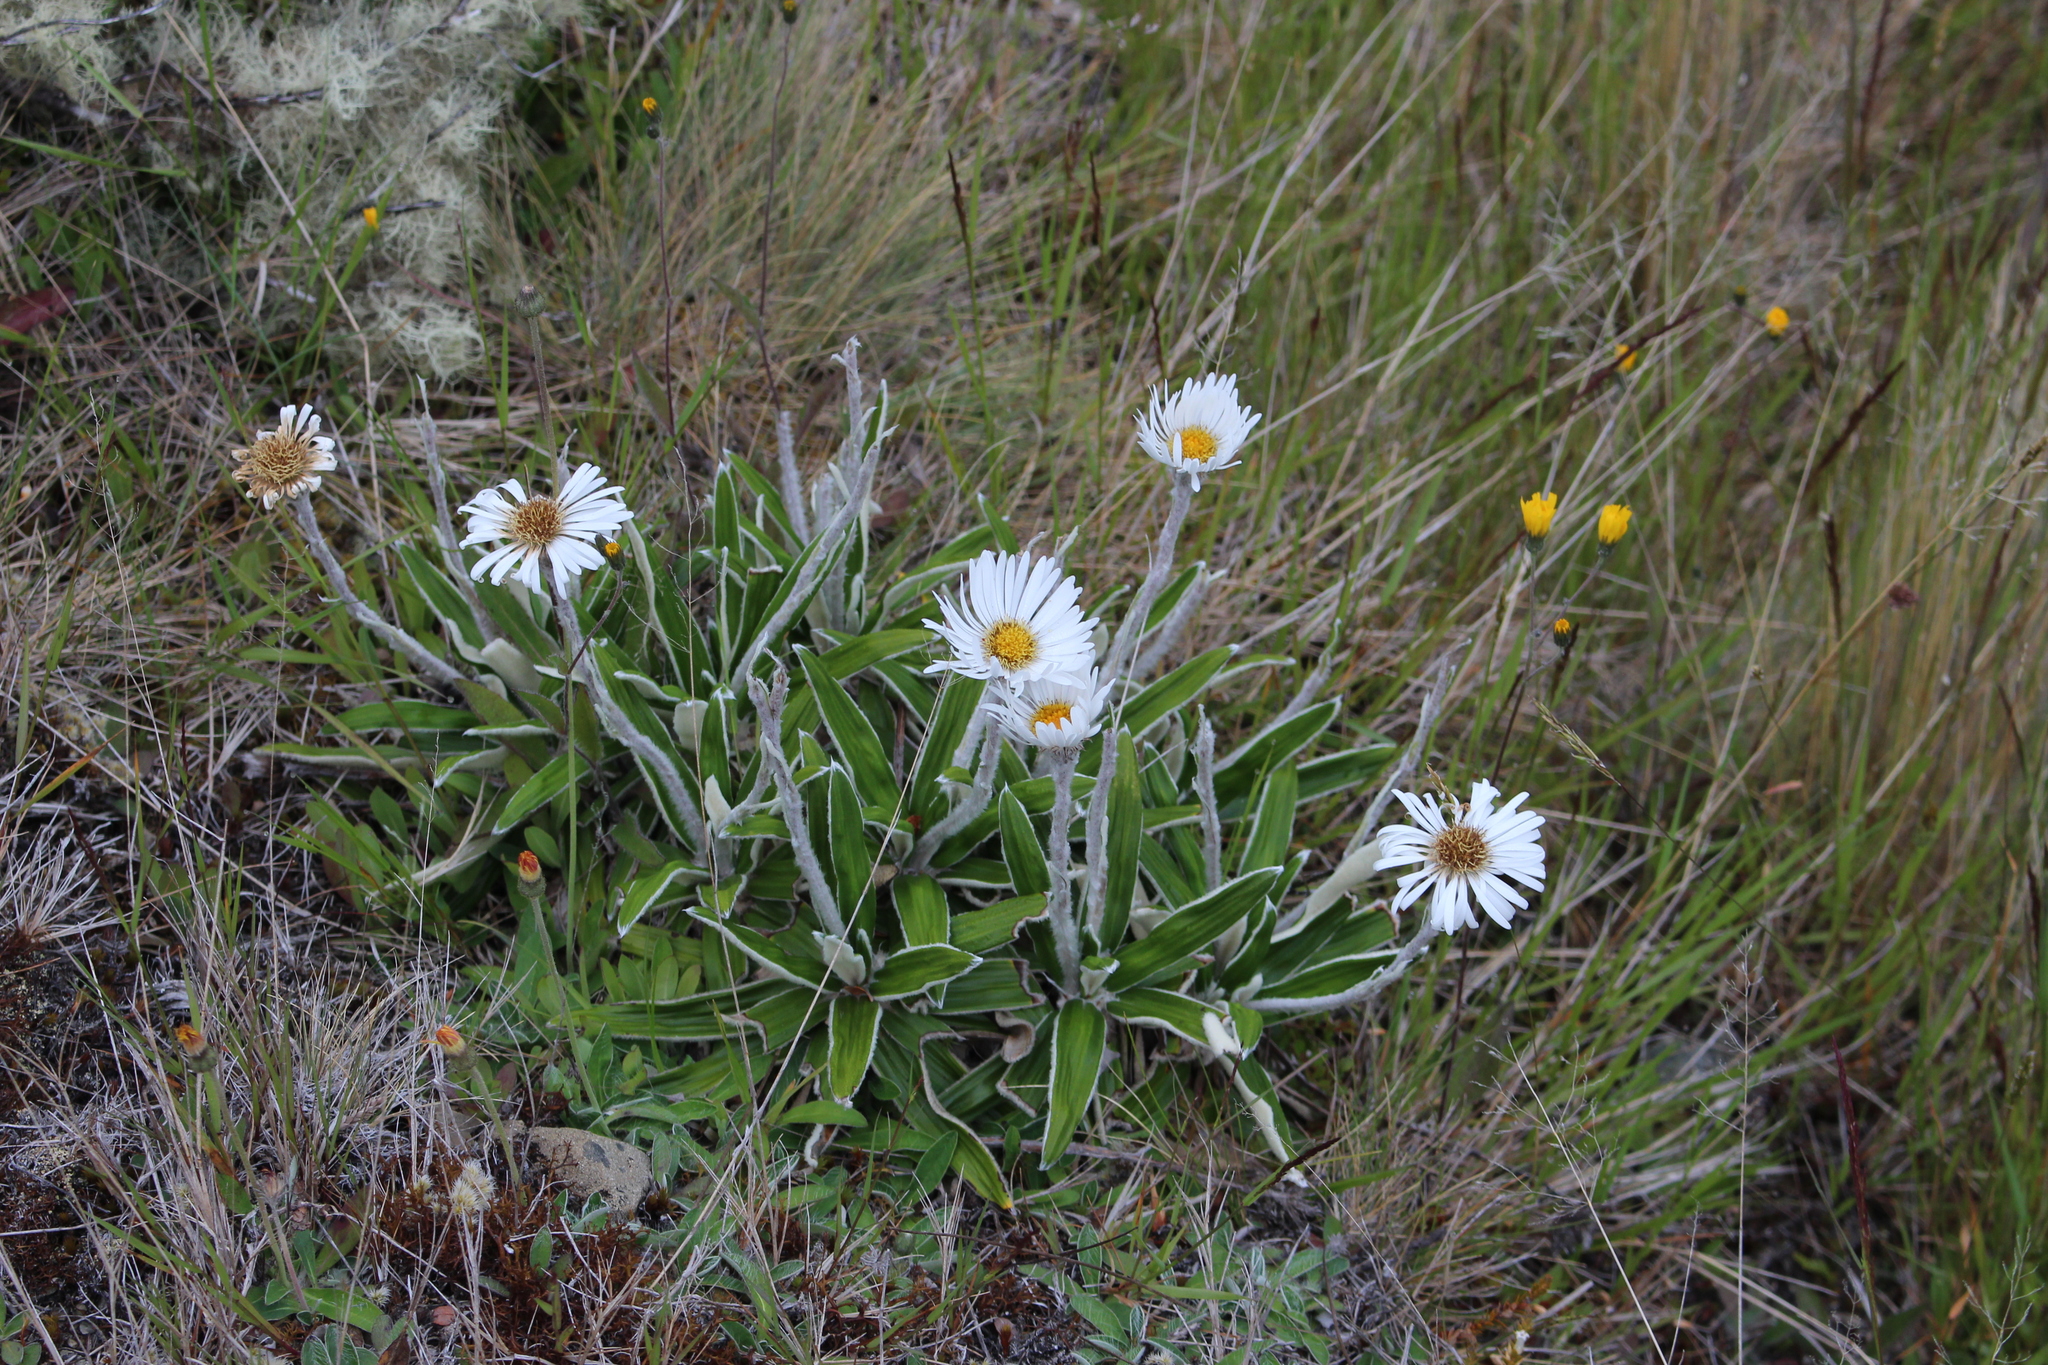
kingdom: Plantae
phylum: Tracheophyta
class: Magnoliopsida
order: Asterales
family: Asteraceae
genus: Celmisia
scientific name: Celmisia spectabilis
